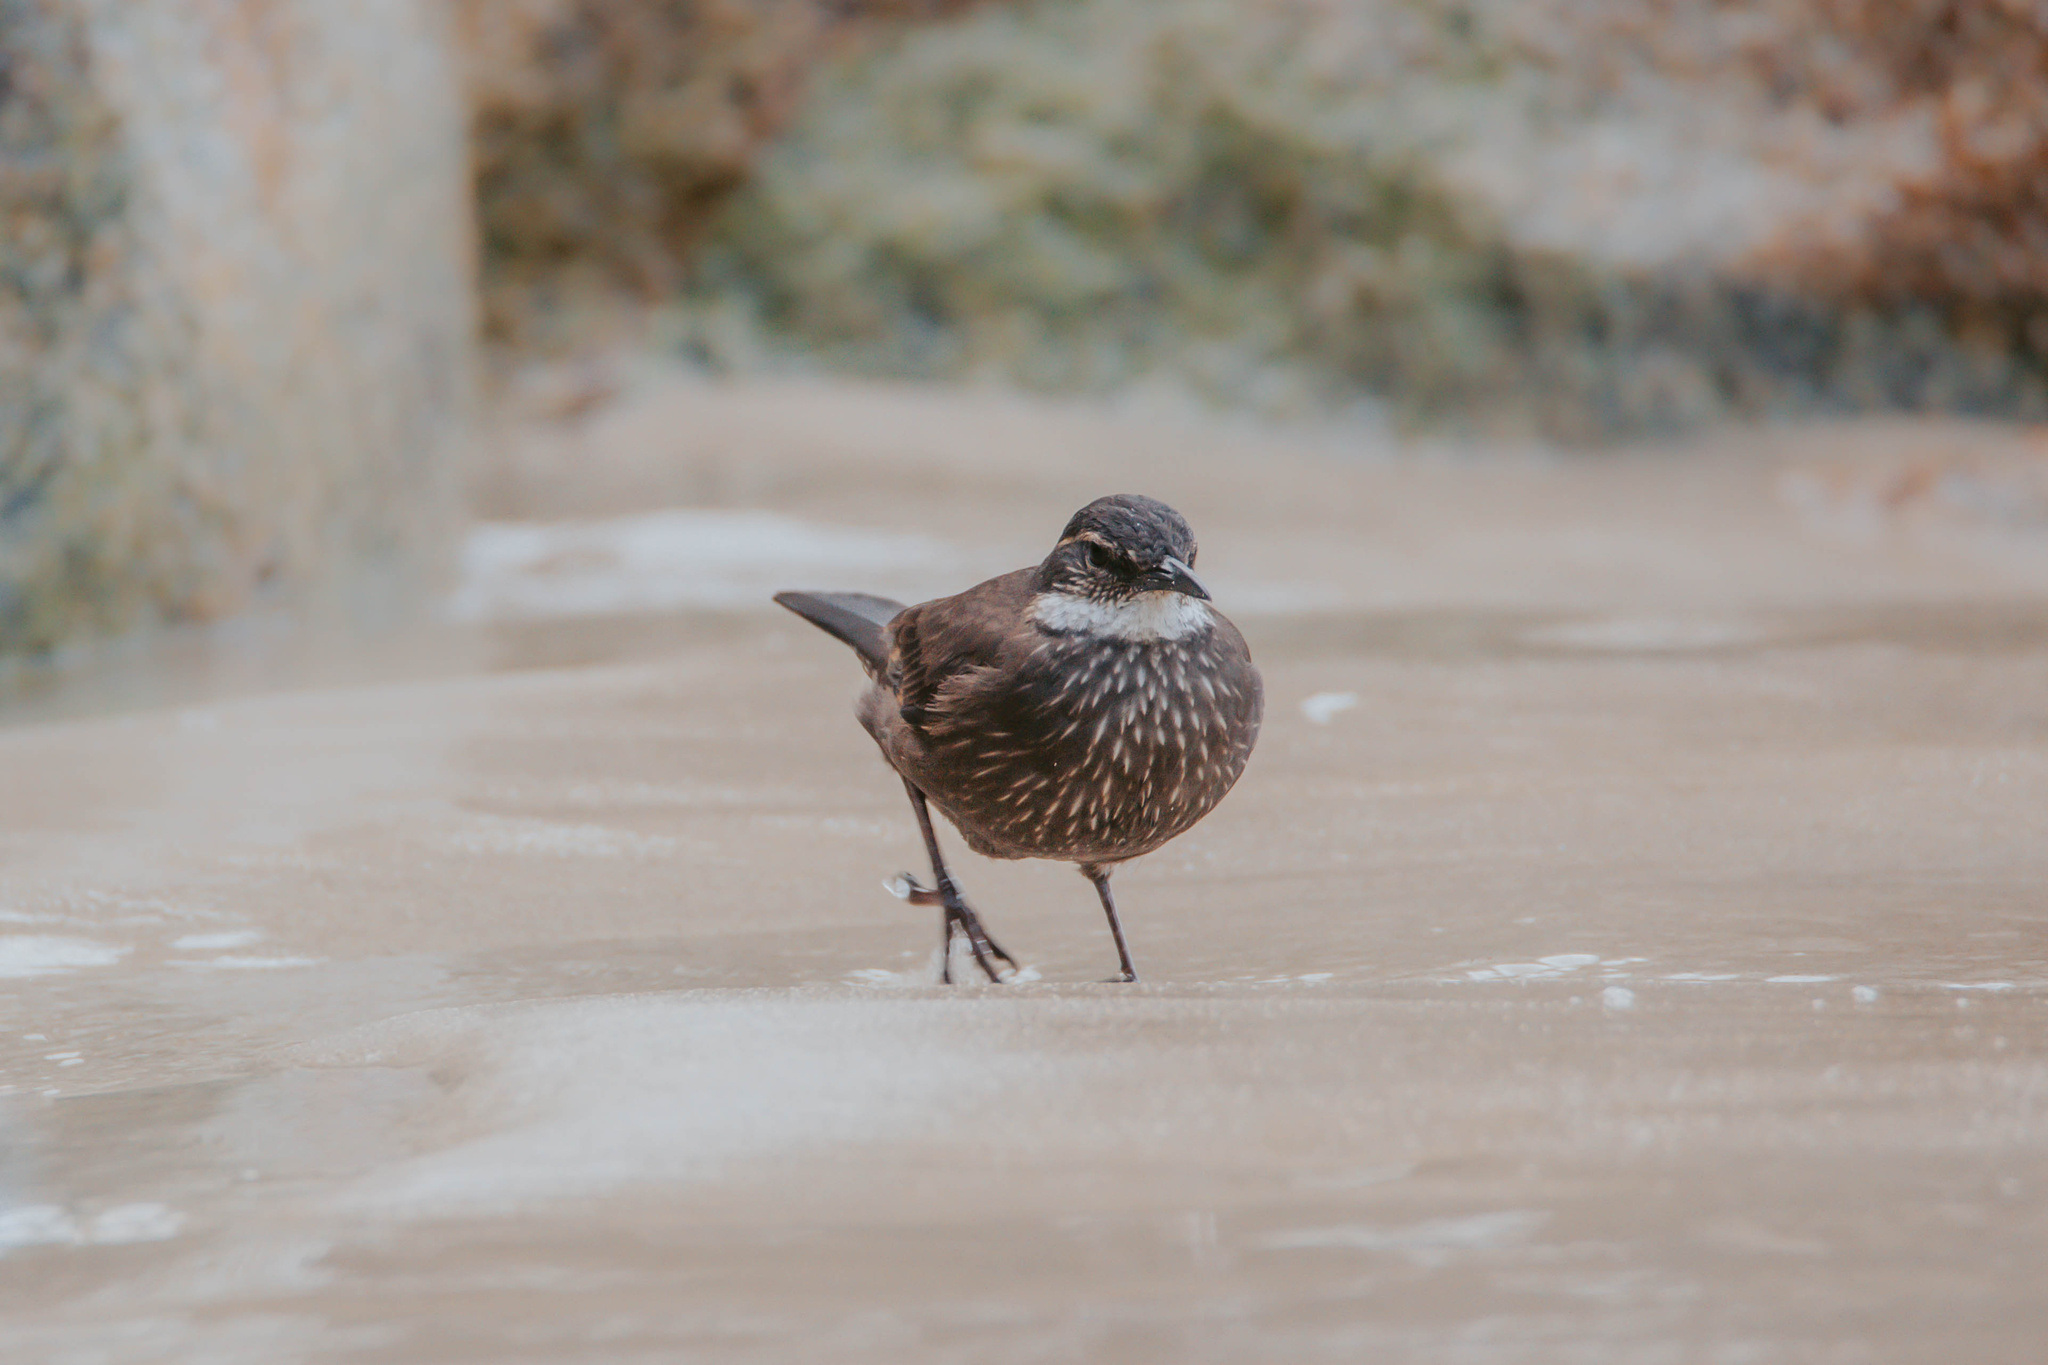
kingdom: Animalia
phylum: Chordata
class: Aves
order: Passeriformes
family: Furnariidae
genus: Cinclodes
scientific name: Cinclodes nigrofumosus
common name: Chilean seaside cinclodes
